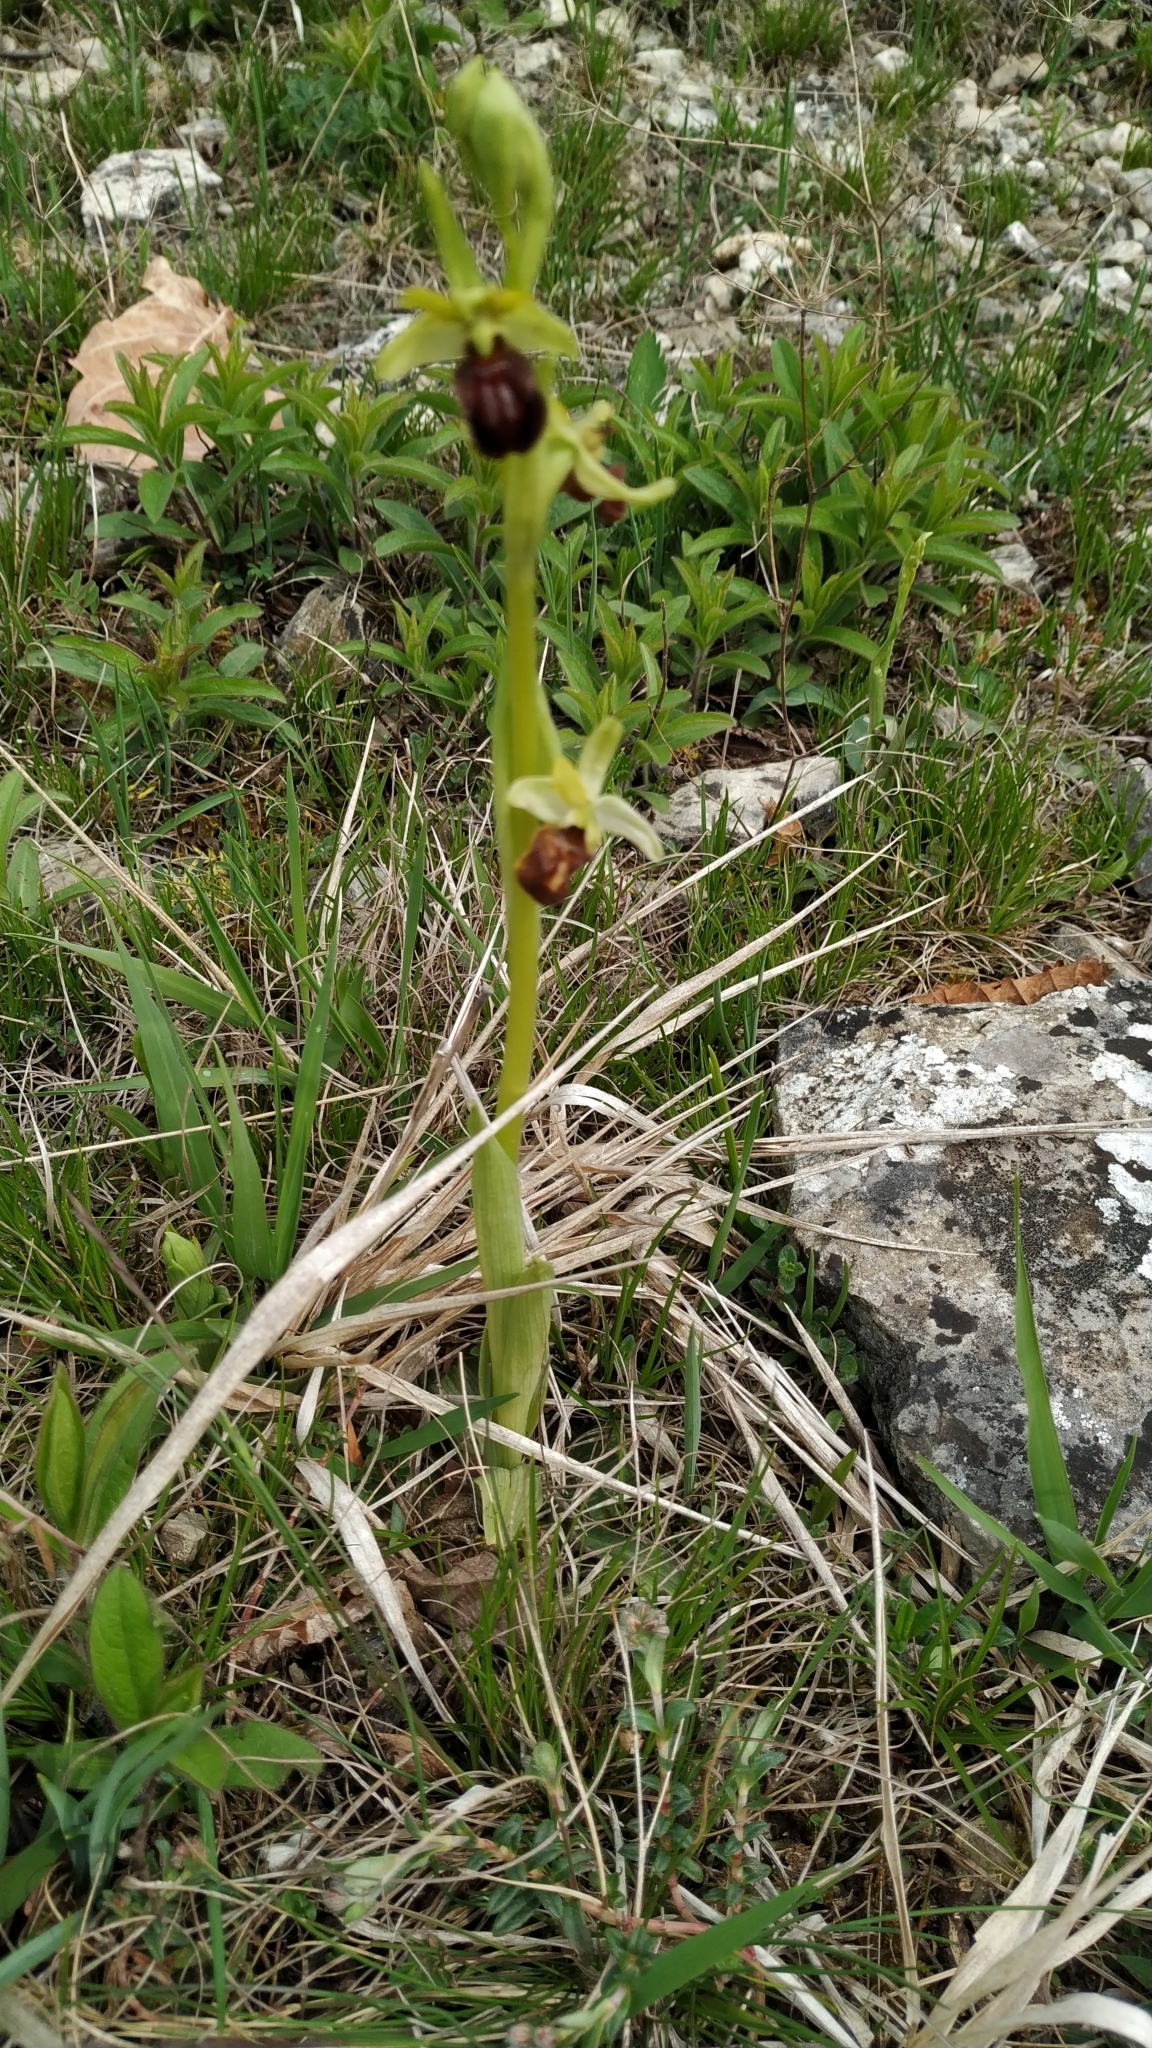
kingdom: Plantae
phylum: Tracheophyta
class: Liliopsida
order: Asparagales
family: Orchidaceae
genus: Ophrys
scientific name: Ophrys sphegodes
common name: Early spider-orchid
